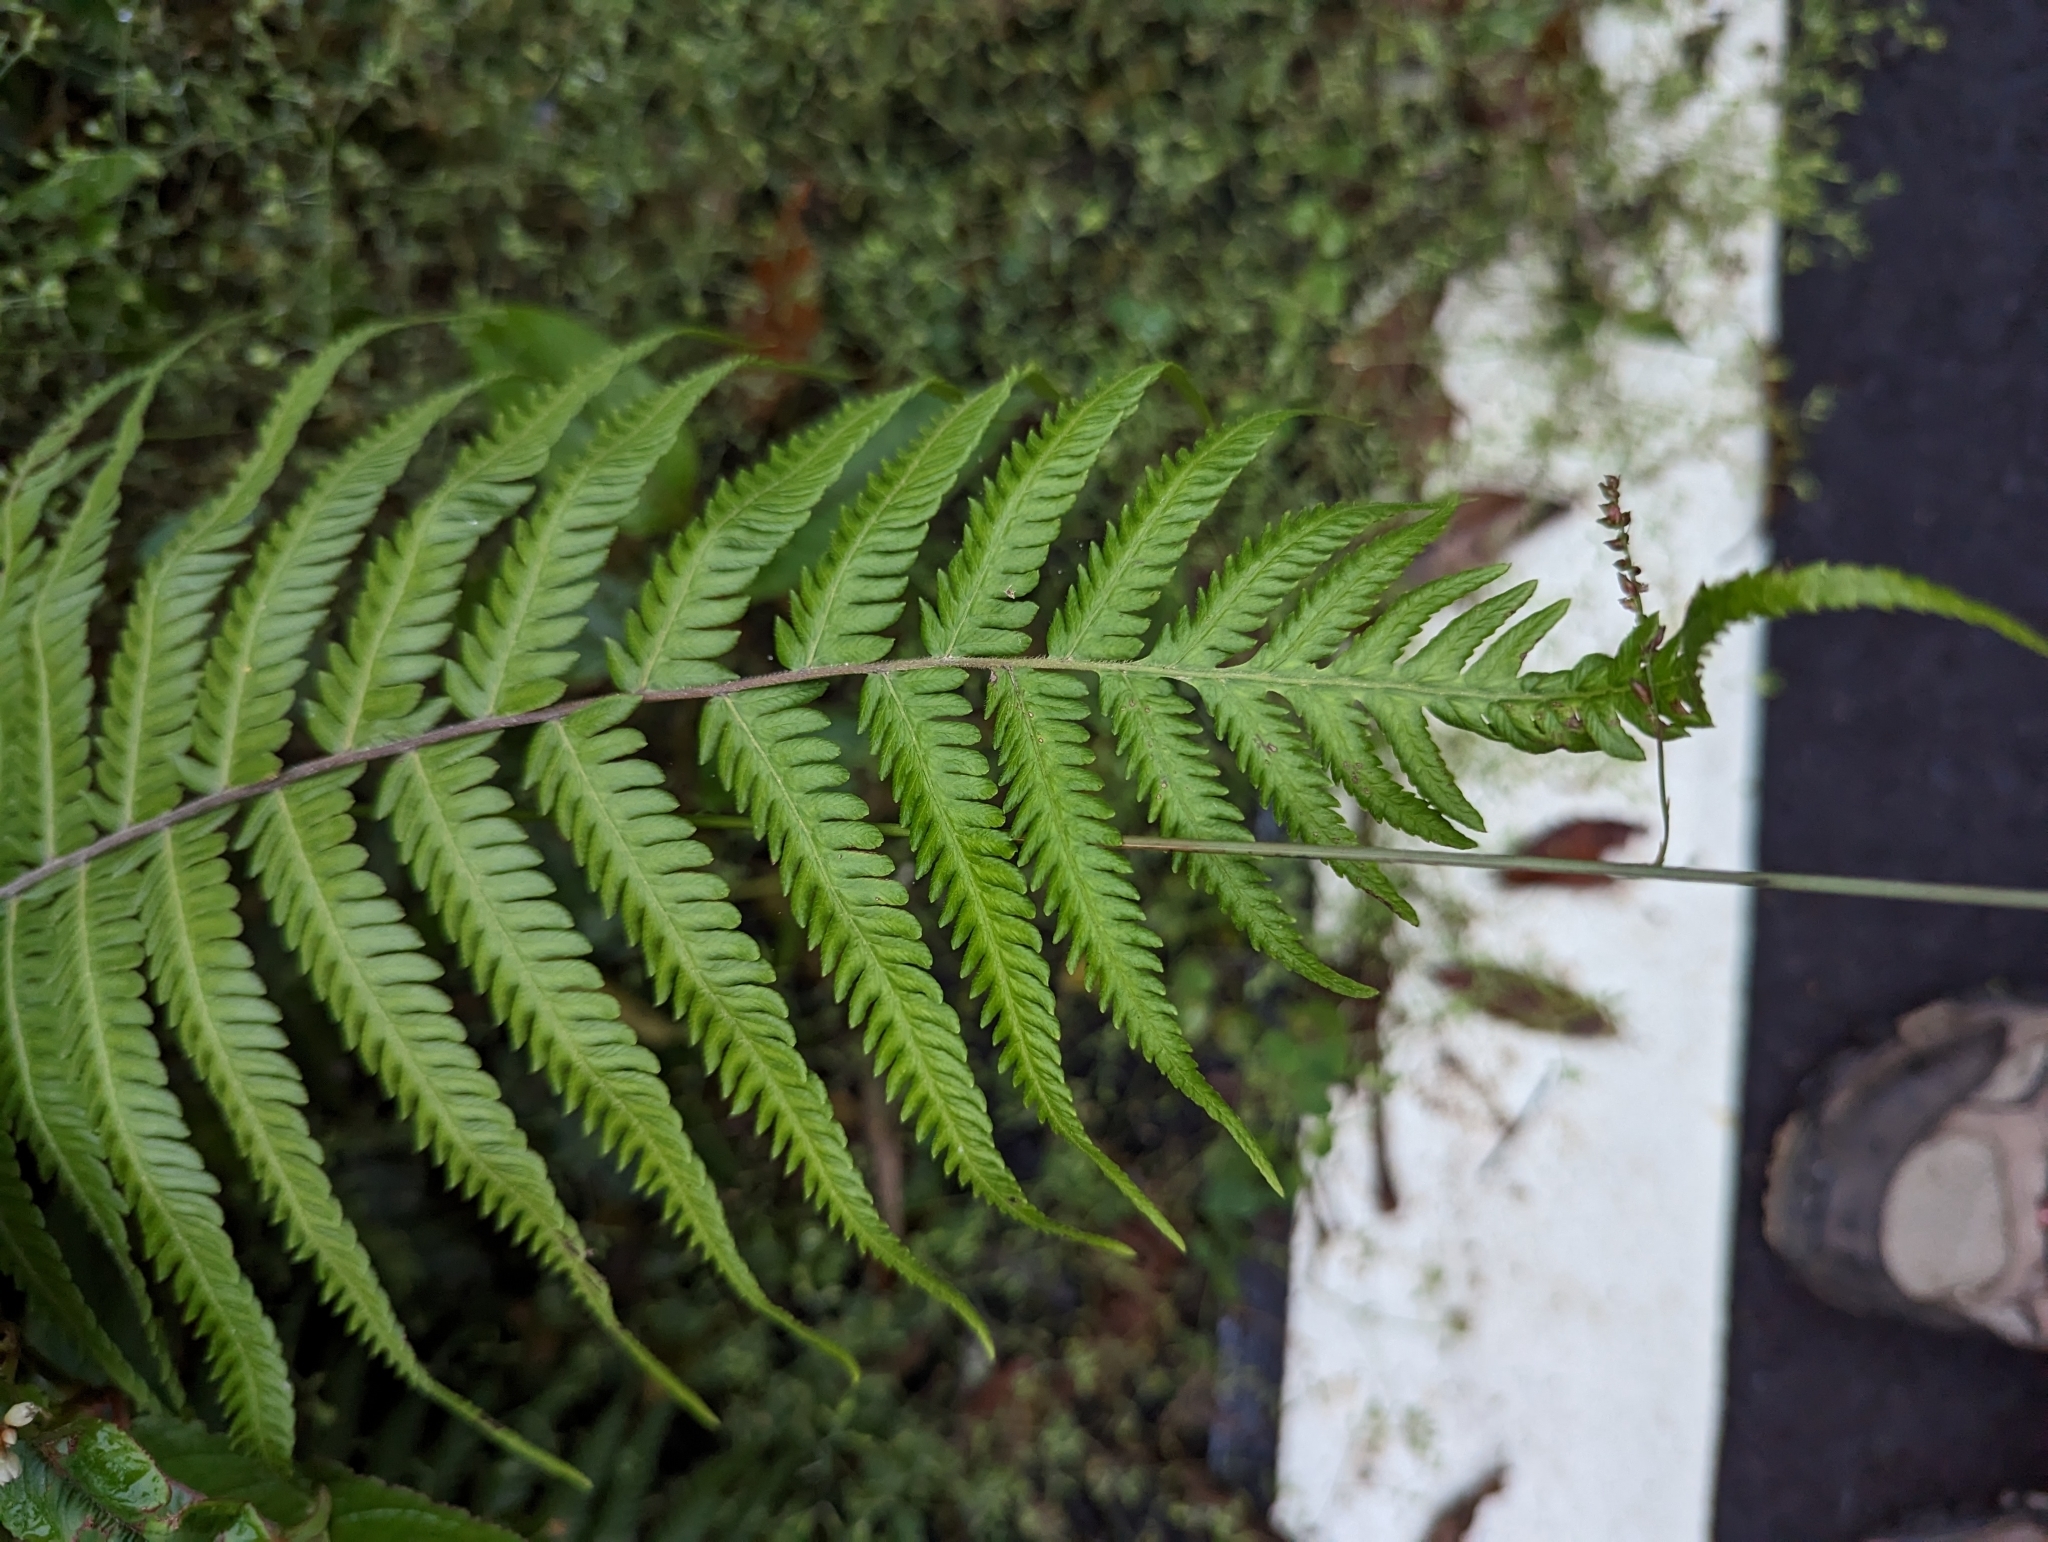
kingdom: Plantae
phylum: Tracheophyta
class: Polypodiopsida
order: Polypodiales
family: Thelypteridaceae
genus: Pseudocyclosorus
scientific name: Pseudocyclosorus esquirolii
